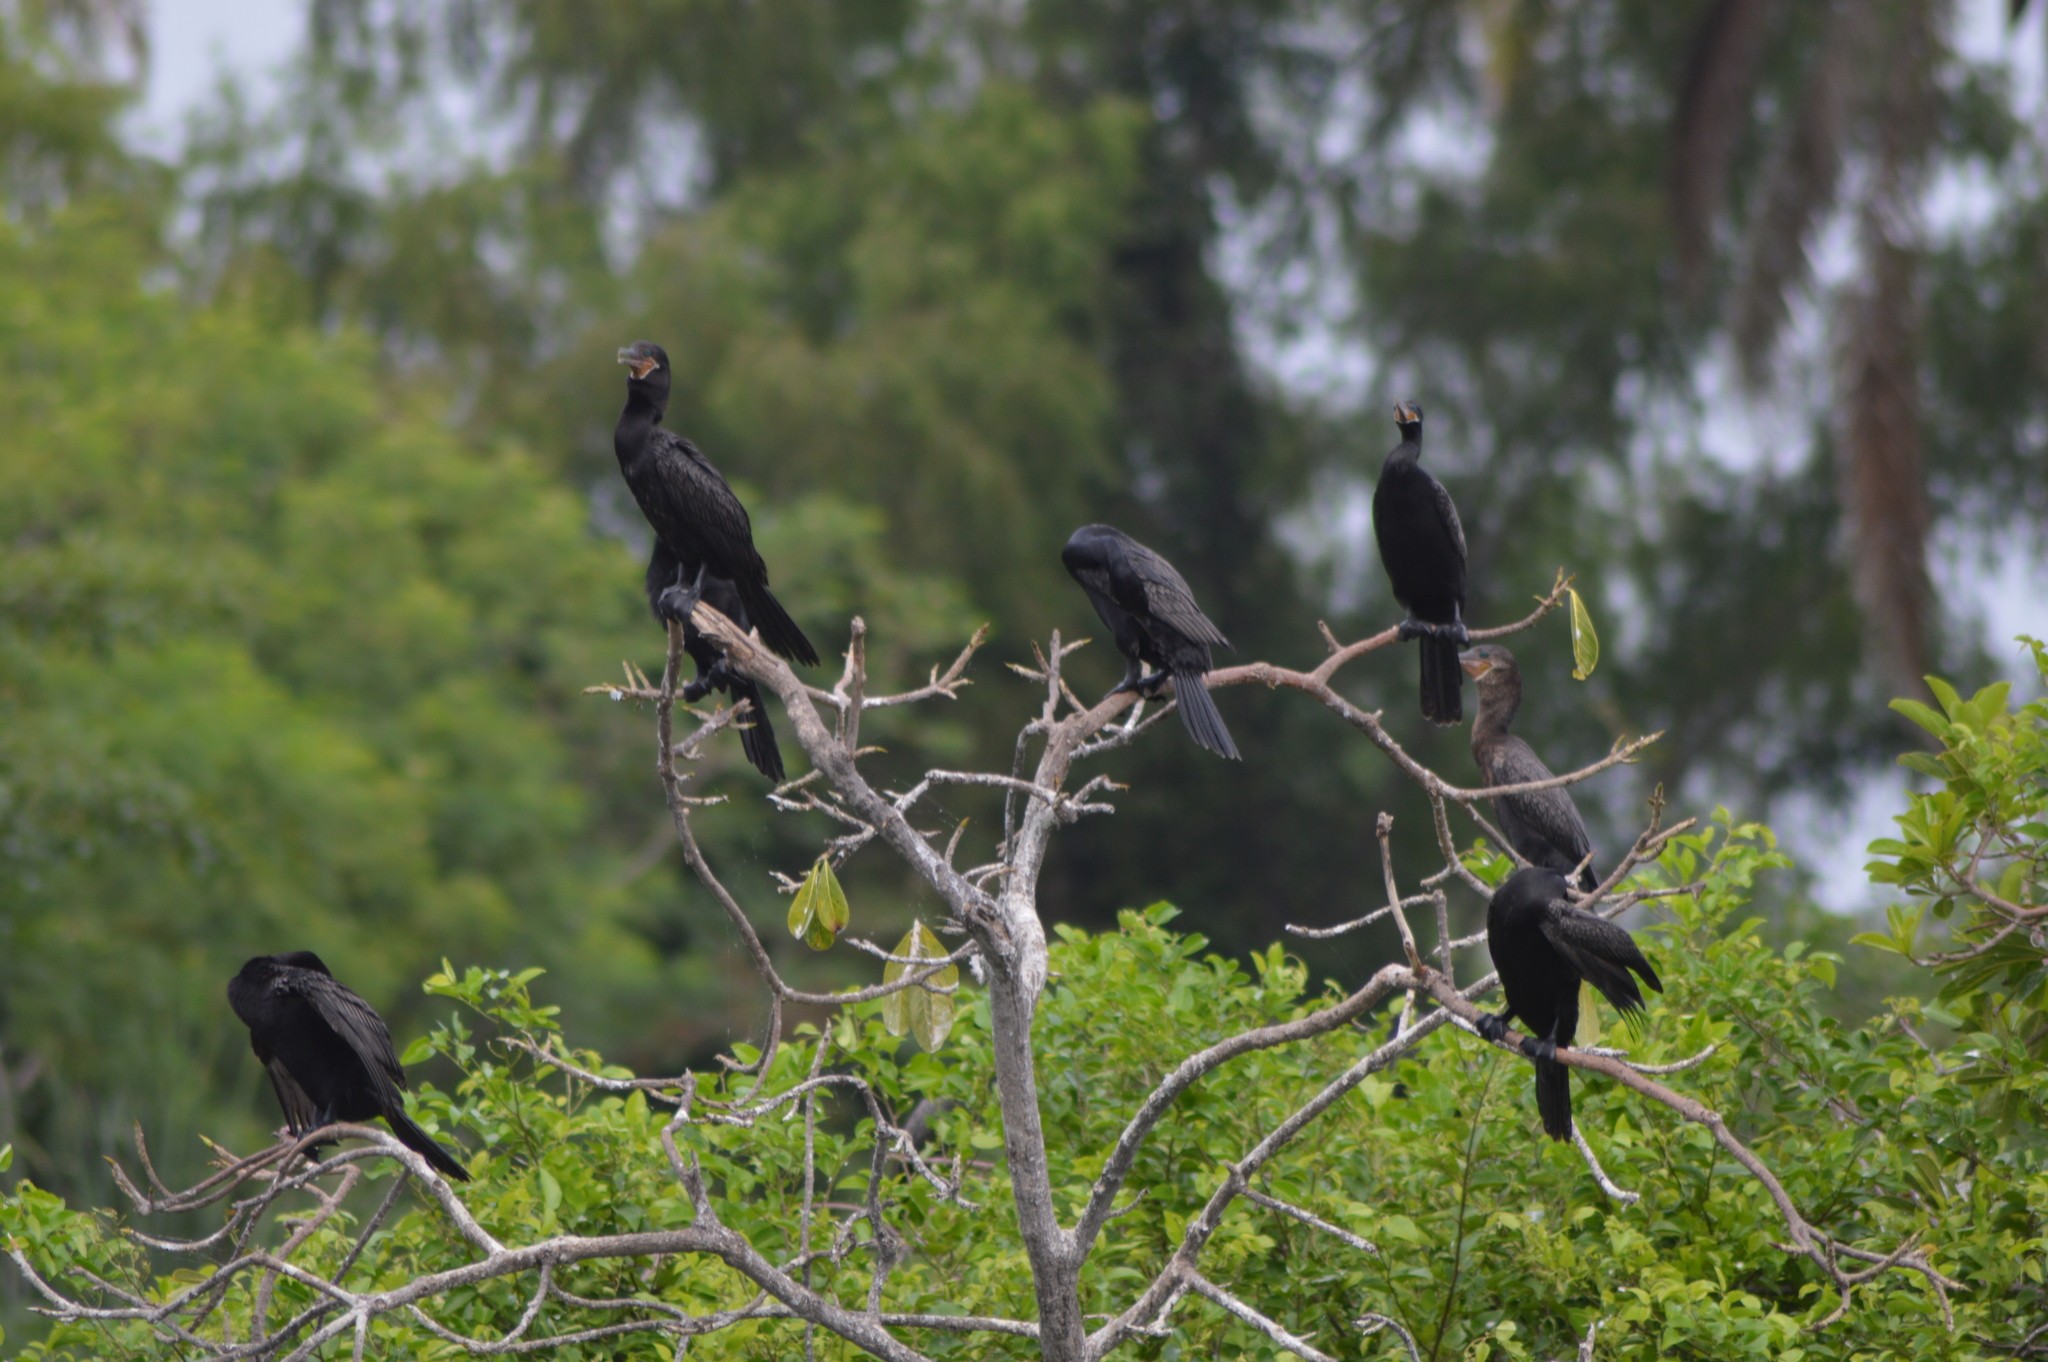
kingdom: Animalia
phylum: Chordata
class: Aves
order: Suliformes
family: Phalacrocoracidae
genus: Phalacrocorax
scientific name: Phalacrocorax brasilianus
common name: Neotropic cormorant
